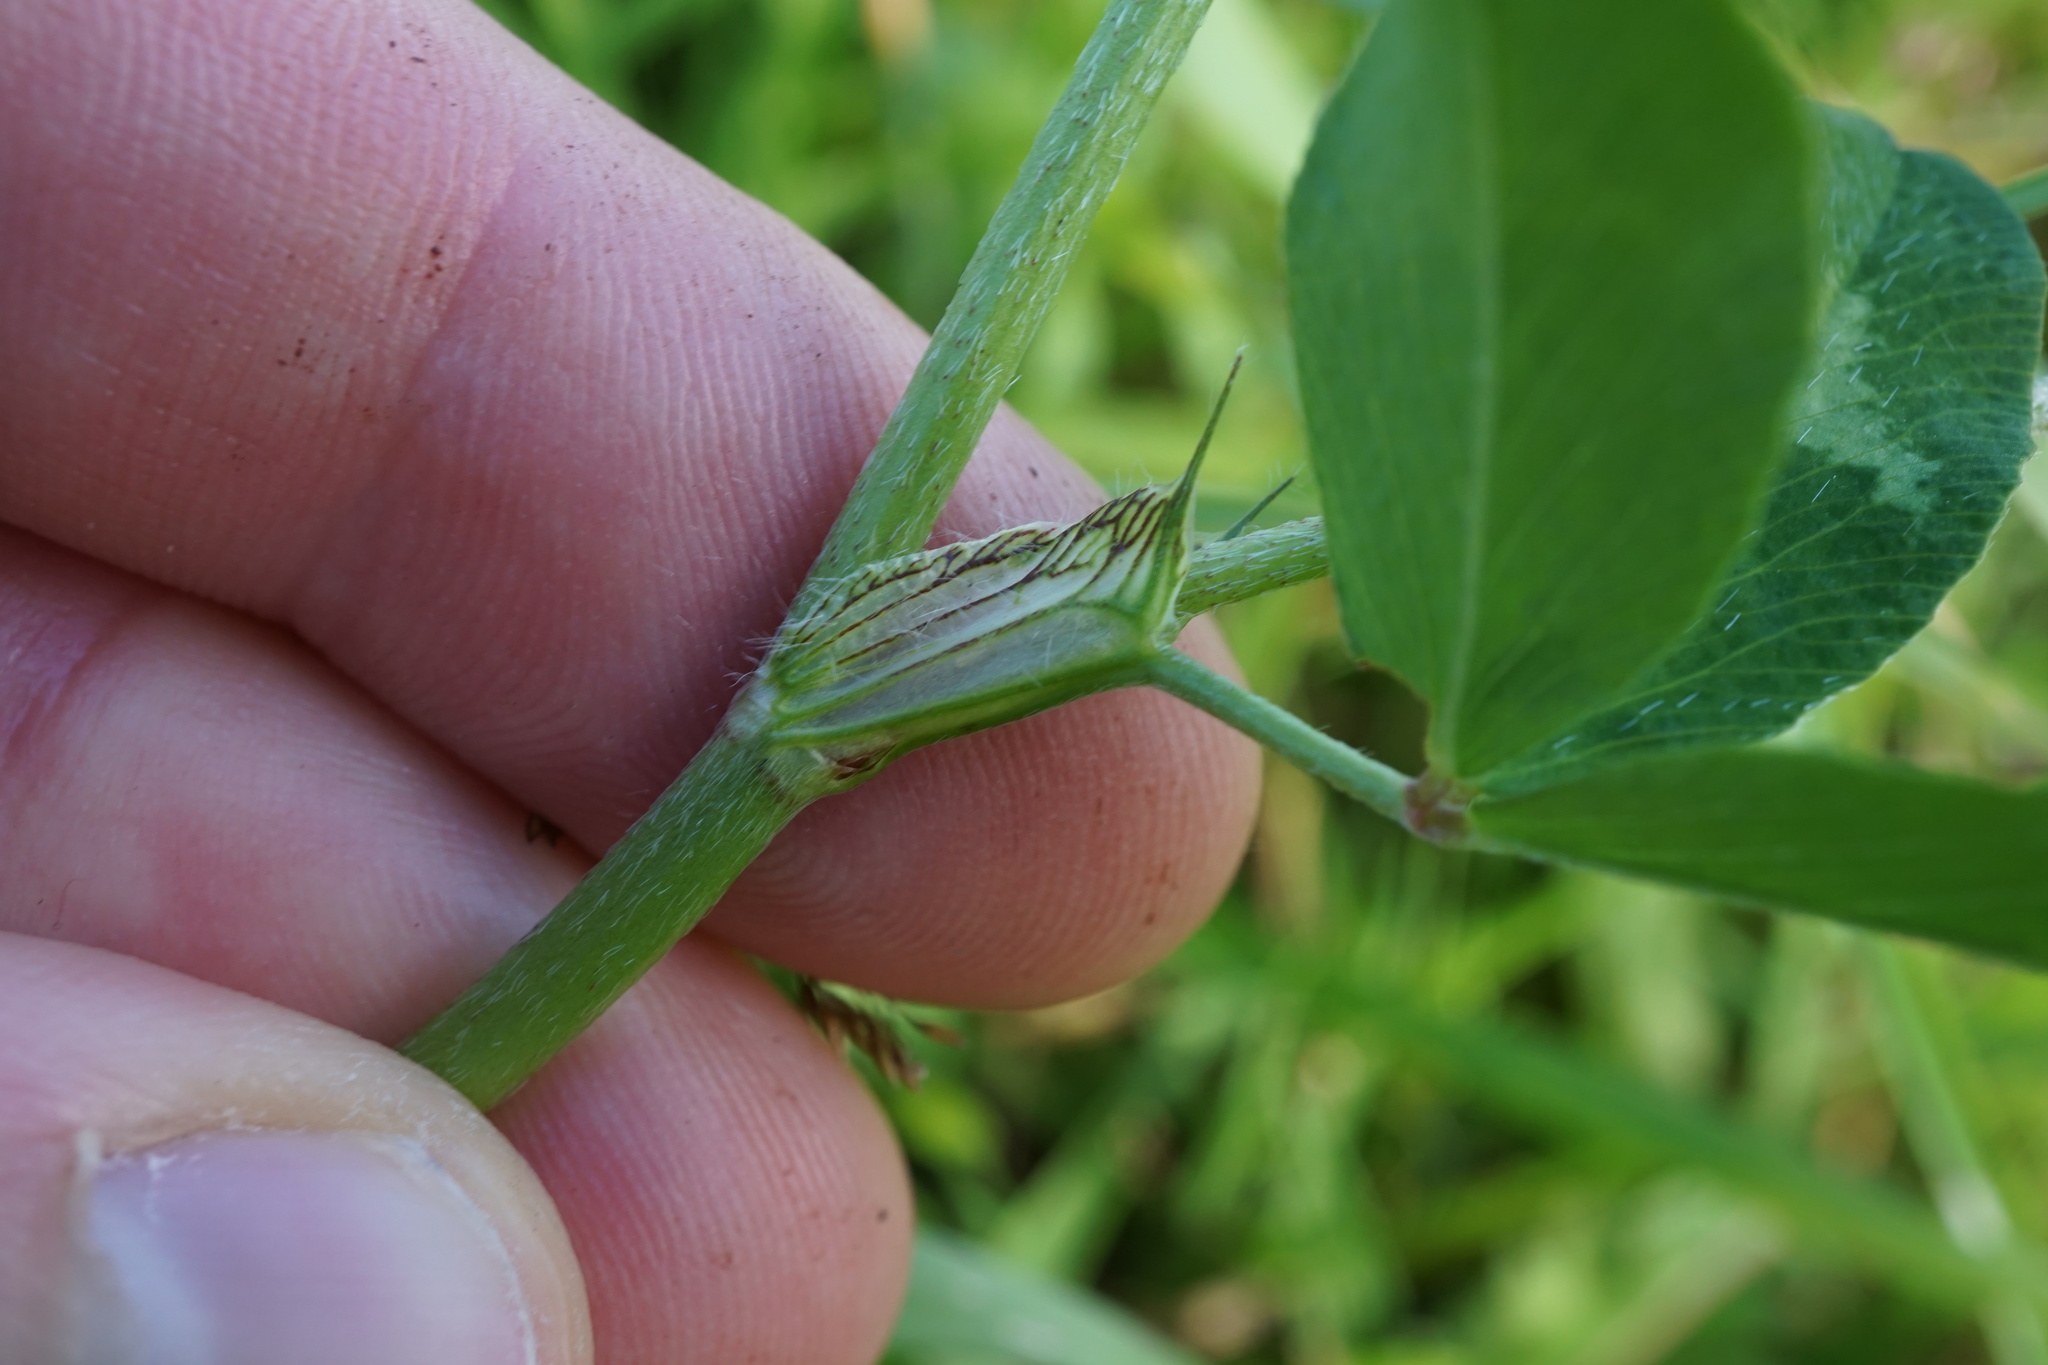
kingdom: Plantae
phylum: Tracheophyta
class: Magnoliopsida
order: Fabales
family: Fabaceae
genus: Trifolium
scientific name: Trifolium pratense
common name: Red clover
